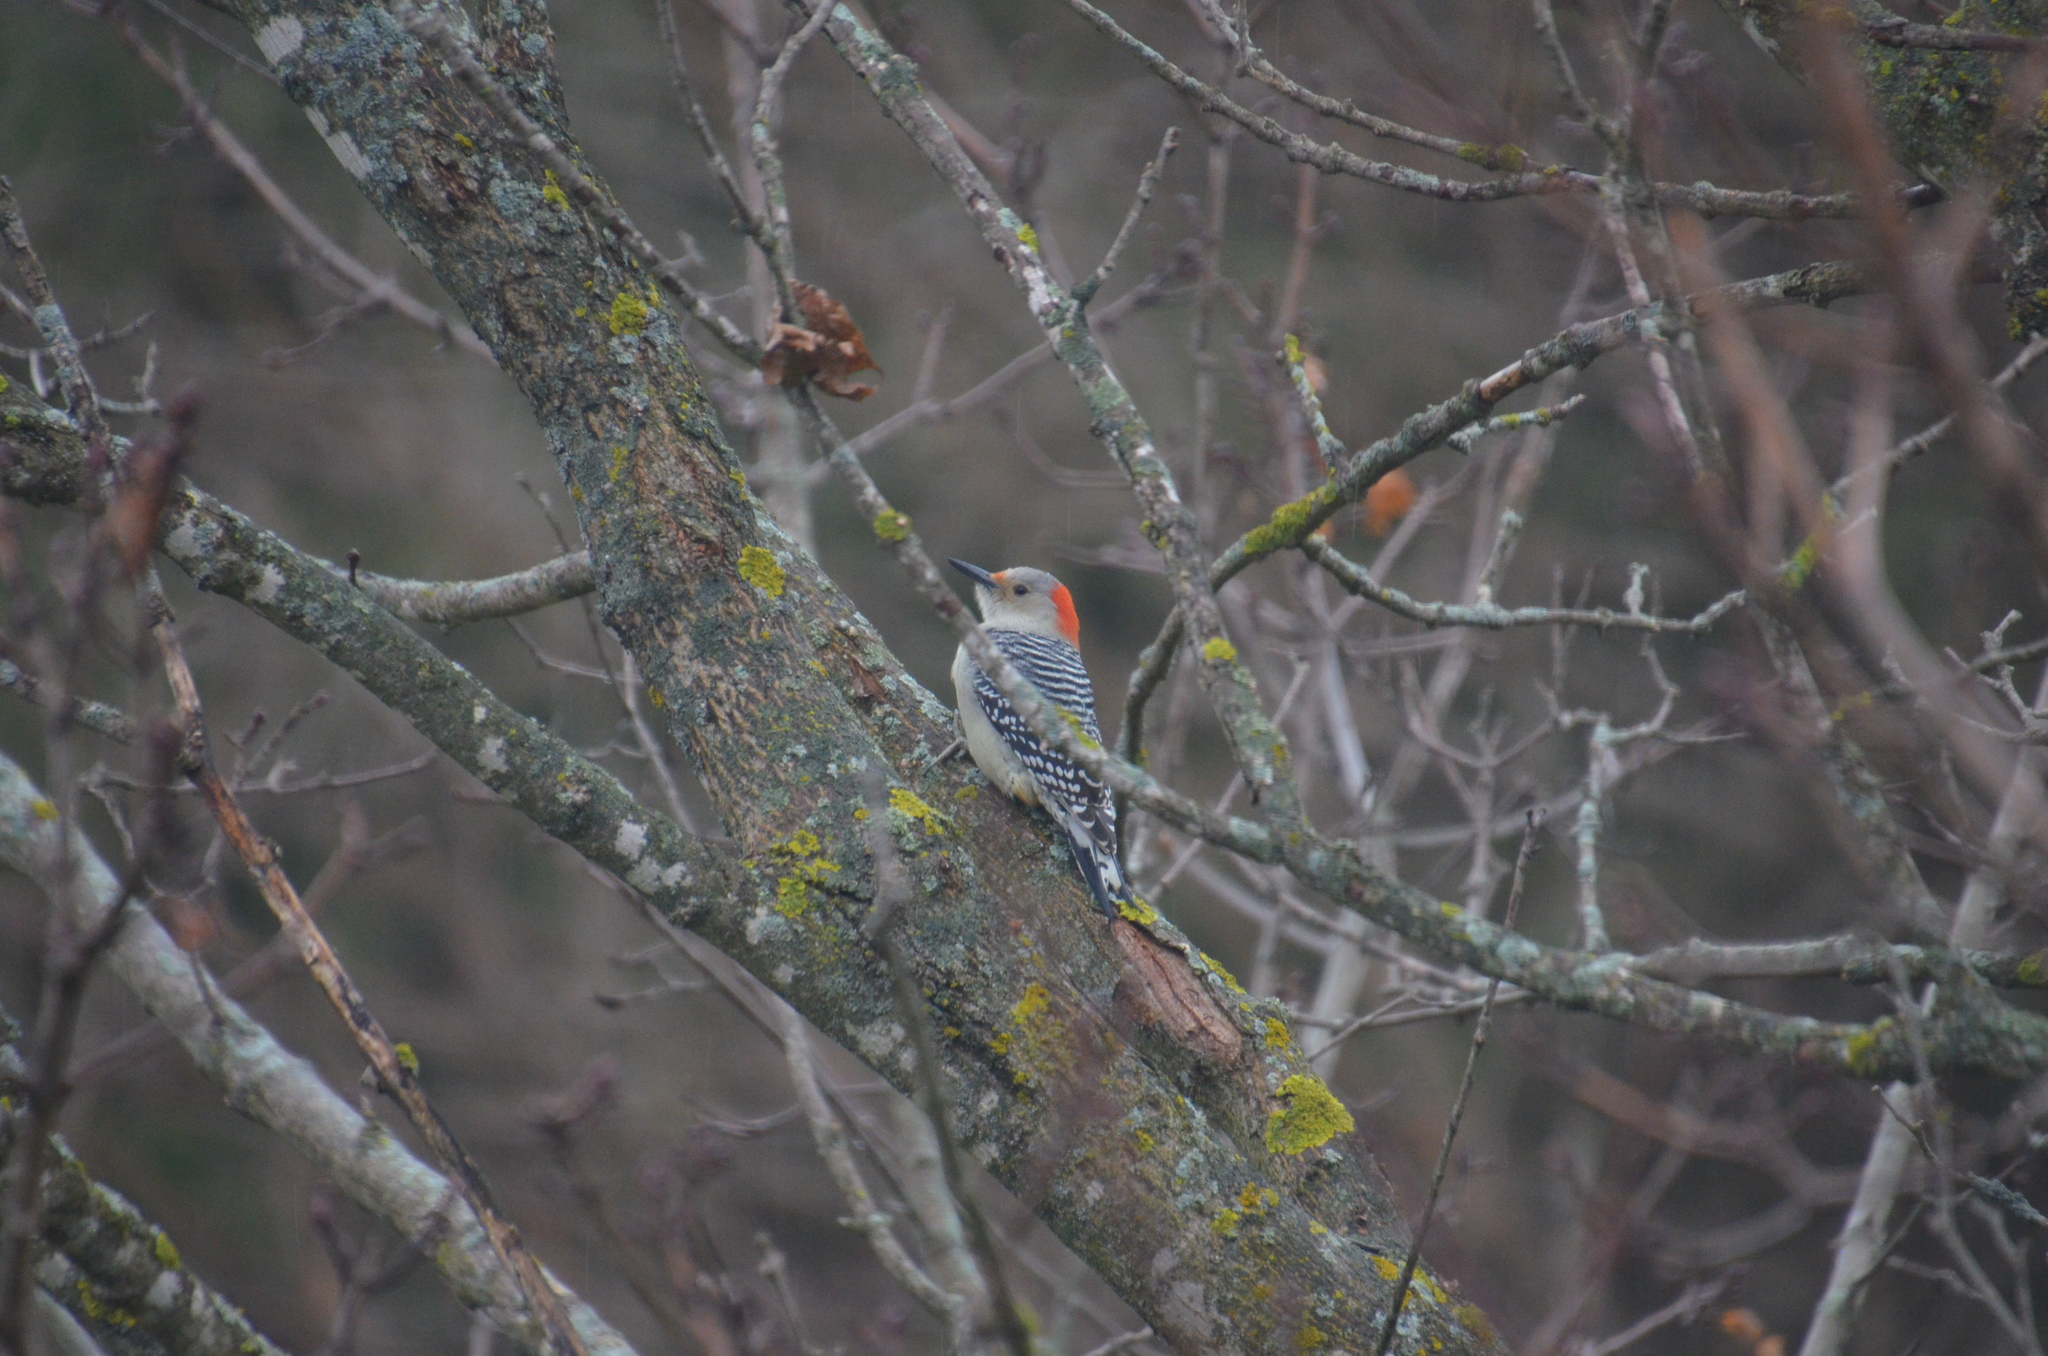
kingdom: Animalia
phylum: Chordata
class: Aves
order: Piciformes
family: Picidae
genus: Melanerpes
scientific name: Melanerpes carolinus
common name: Red-bellied woodpecker
